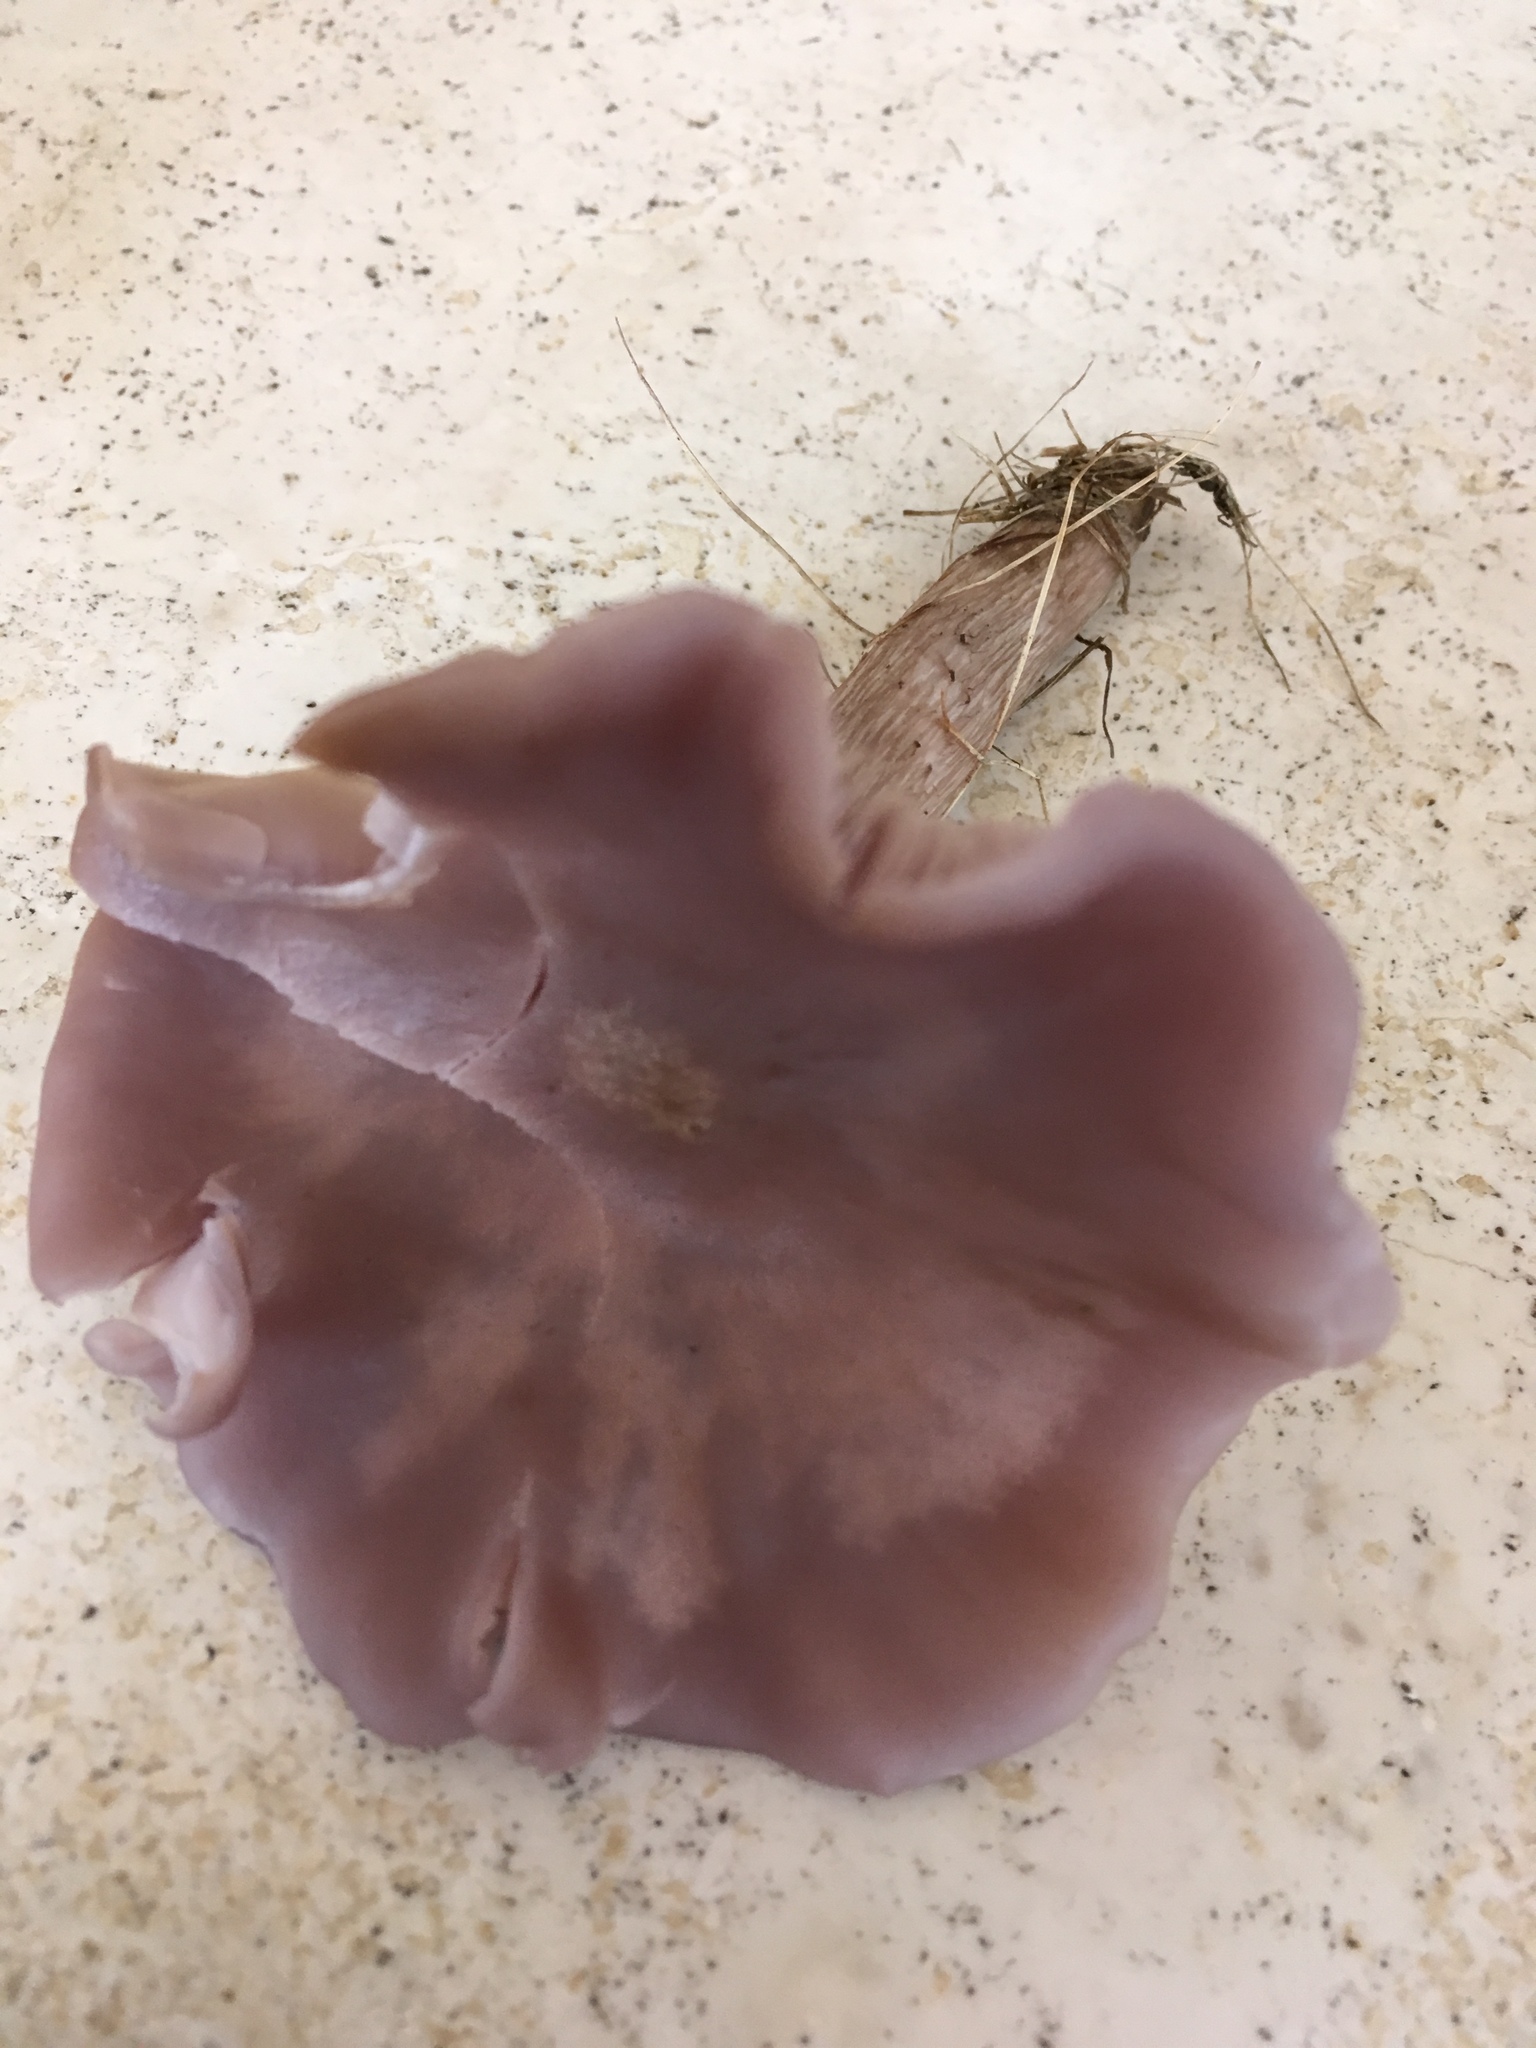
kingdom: Fungi
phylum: Basidiomycota
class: Agaricomycetes
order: Agaricales
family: Tricholomataceae
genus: Collybia
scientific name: Collybia
